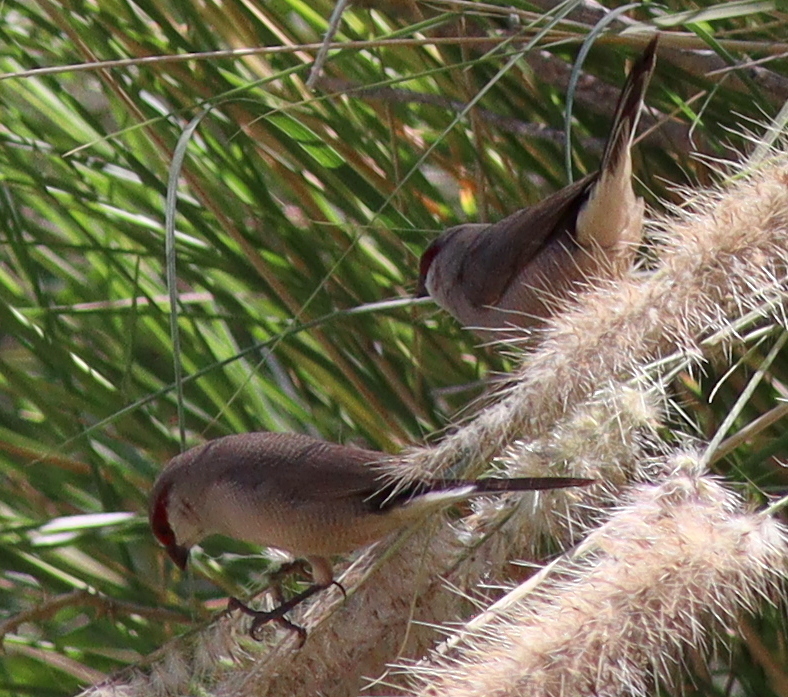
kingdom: Animalia
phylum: Chordata
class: Aves
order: Passeriformes
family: Estrildidae
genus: Estrilda
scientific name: Estrilda rufibarba
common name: Arabian waxbill
